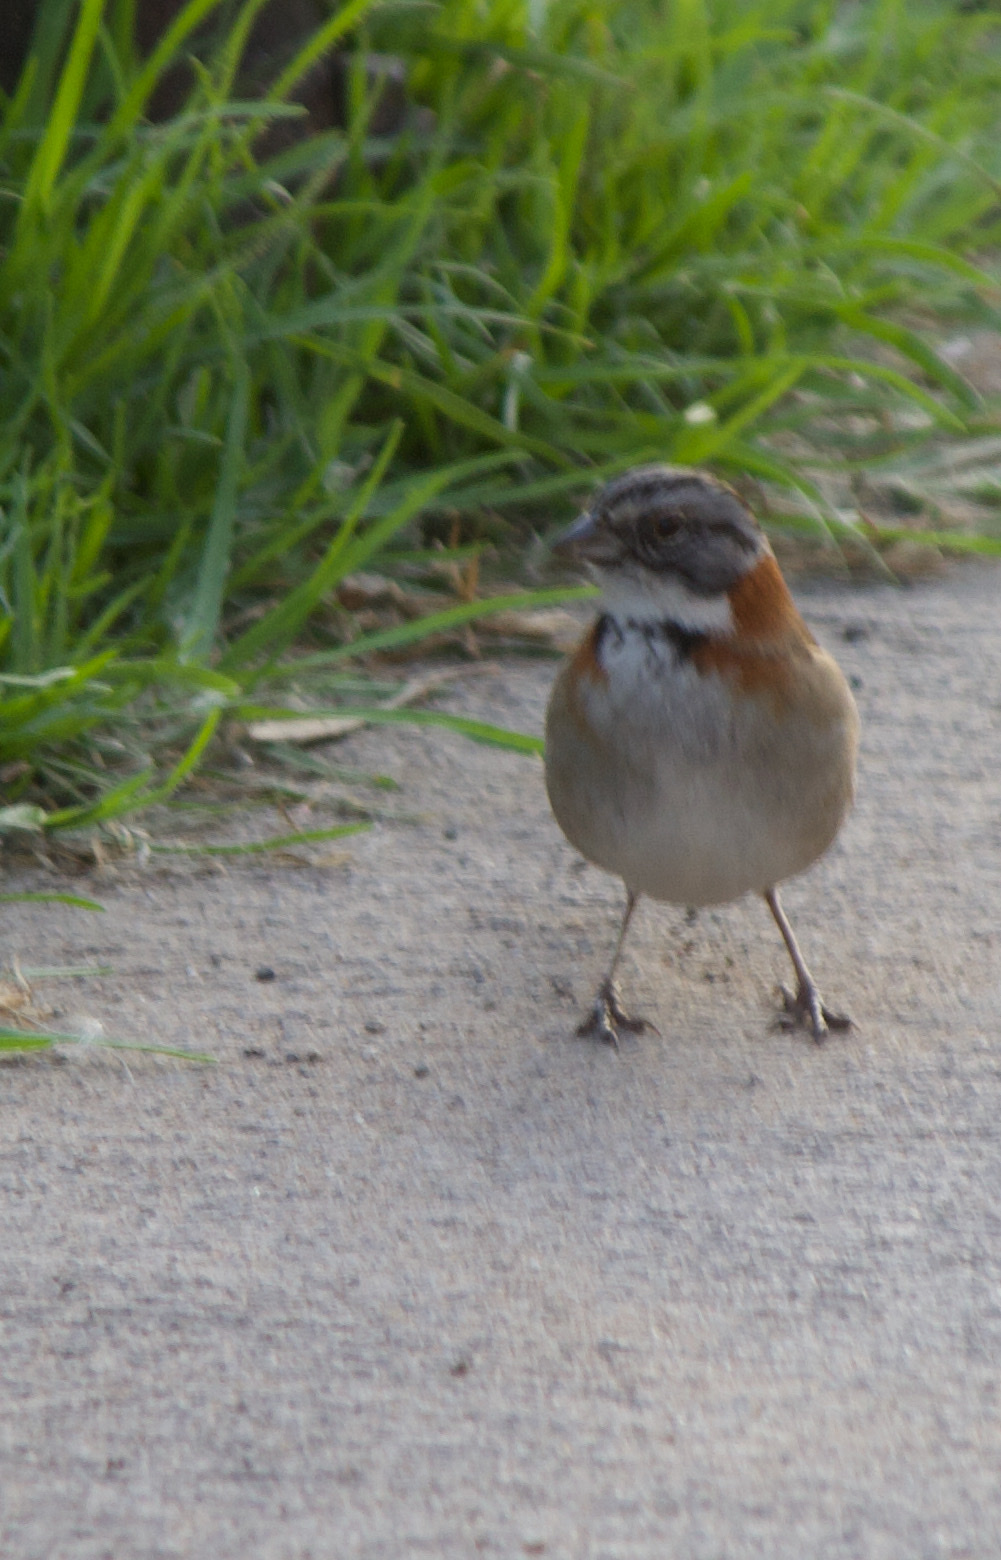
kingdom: Animalia
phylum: Chordata
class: Aves
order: Passeriformes
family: Passerellidae
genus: Zonotrichia
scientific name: Zonotrichia capensis
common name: Rufous-collared sparrow
